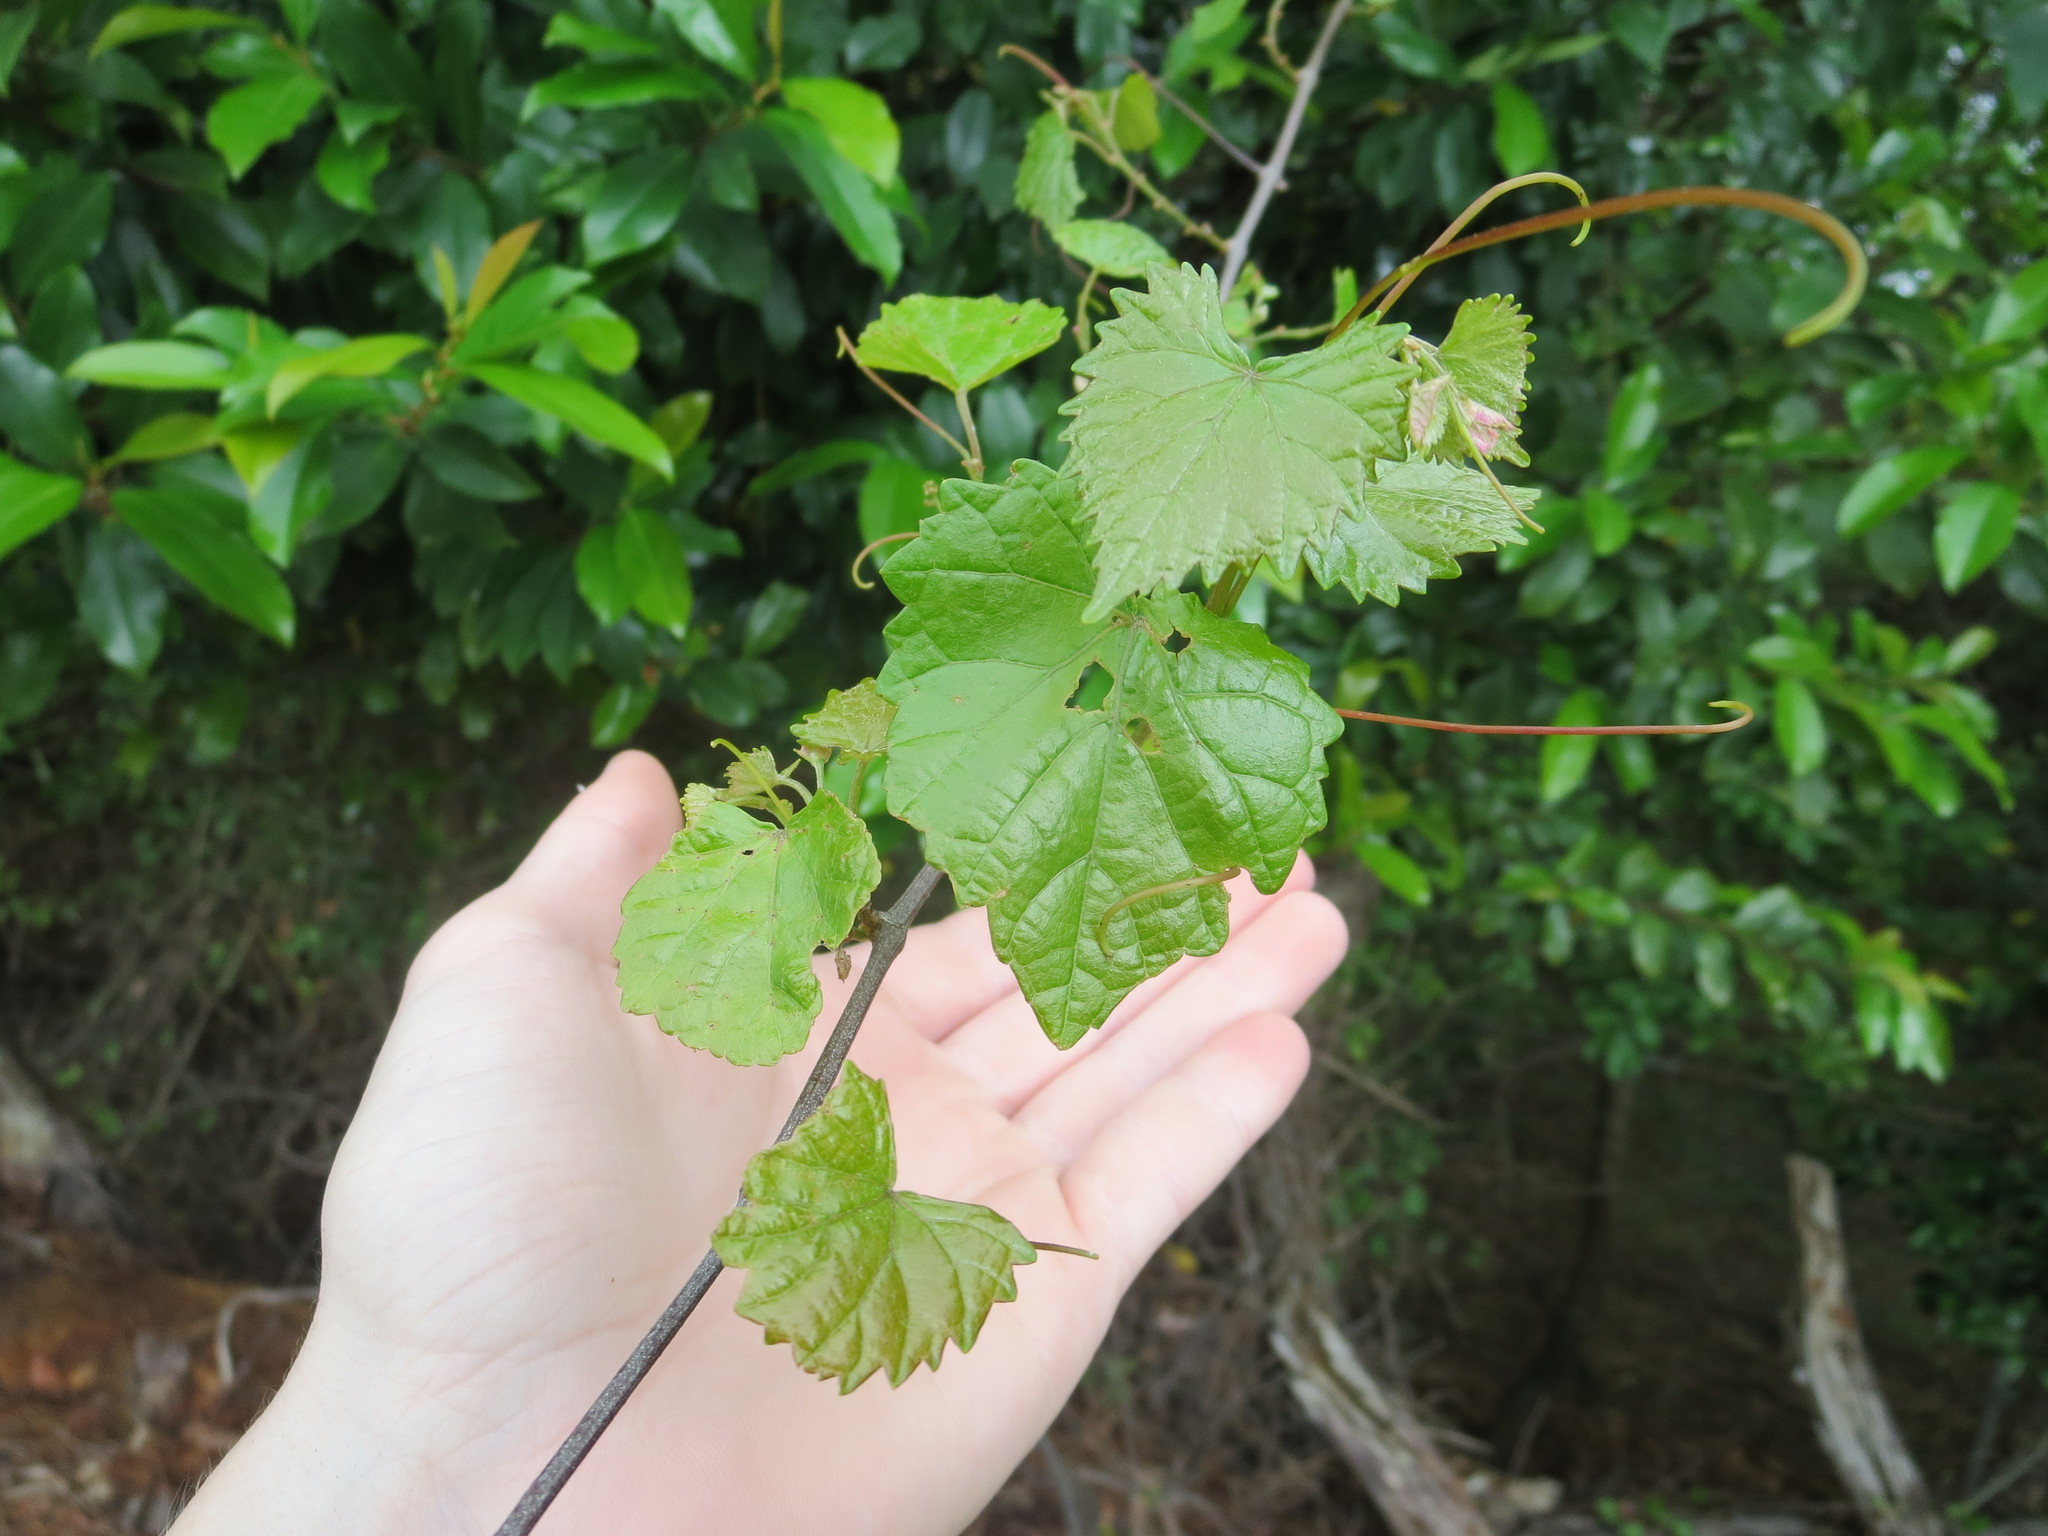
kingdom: Plantae
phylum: Tracheophyta
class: Magnoliopsida
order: Vitales
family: Vitaceae
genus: Vitis
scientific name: Vitis rotundifolia
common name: Muscadine grape
